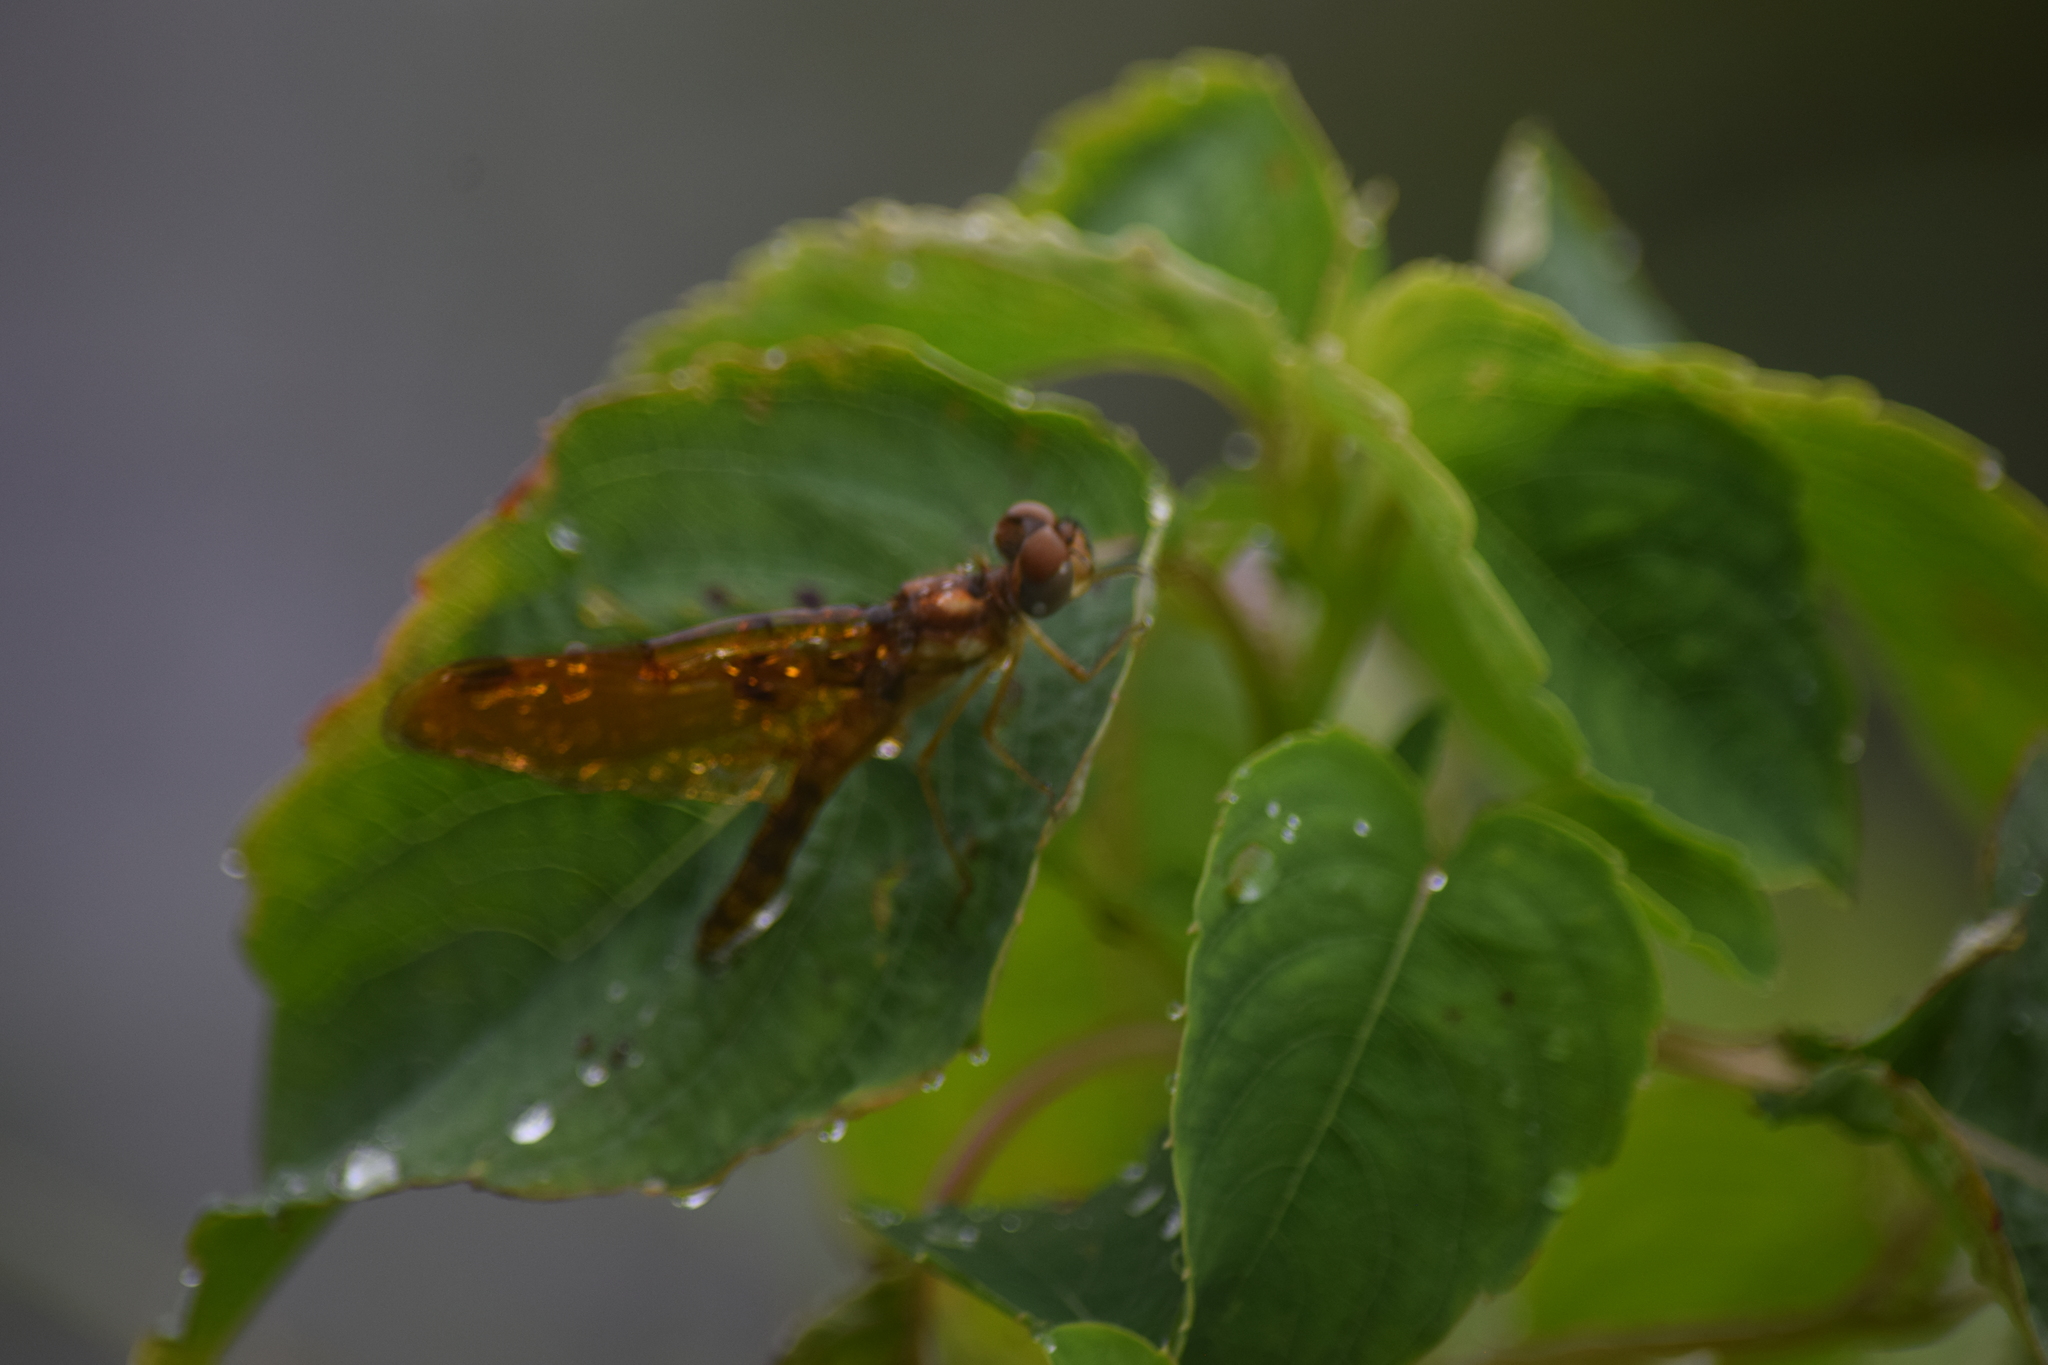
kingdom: Animalia
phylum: Arthropoda
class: Insecta
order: Odonata
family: Libellulidae
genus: Perithemis
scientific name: Perithemis tenera
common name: Eastern amberwing
